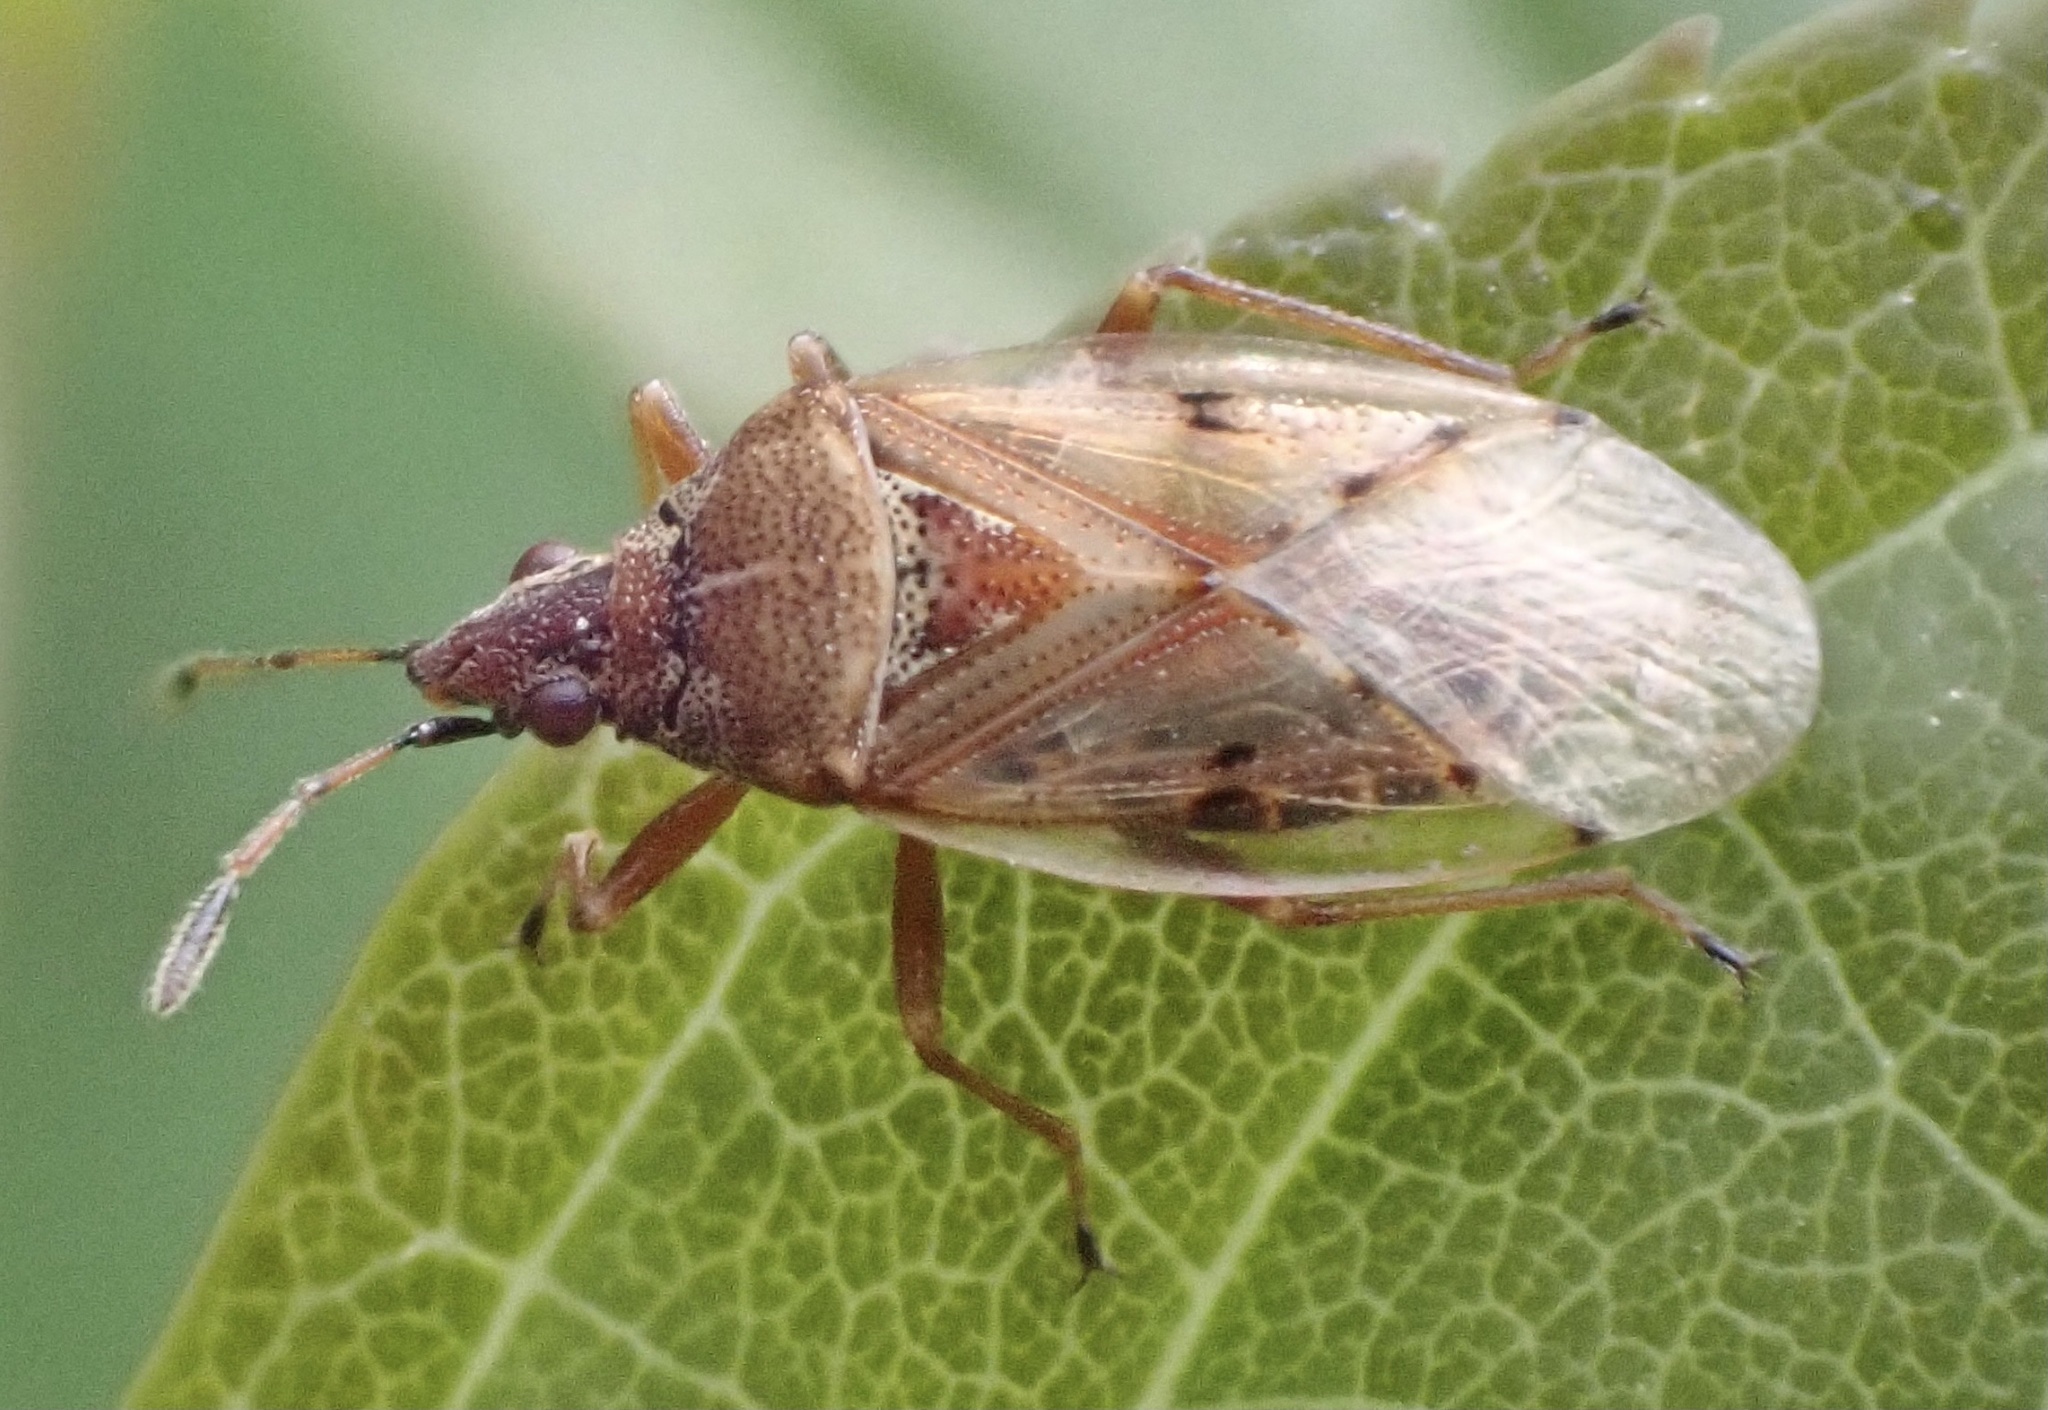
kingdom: Animalia
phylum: Arthropoda
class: Insecta
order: Hemiptera
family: Lygaeidae
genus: Kleidocerys
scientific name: Kleidocerys resedae
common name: Birch catkin bug
